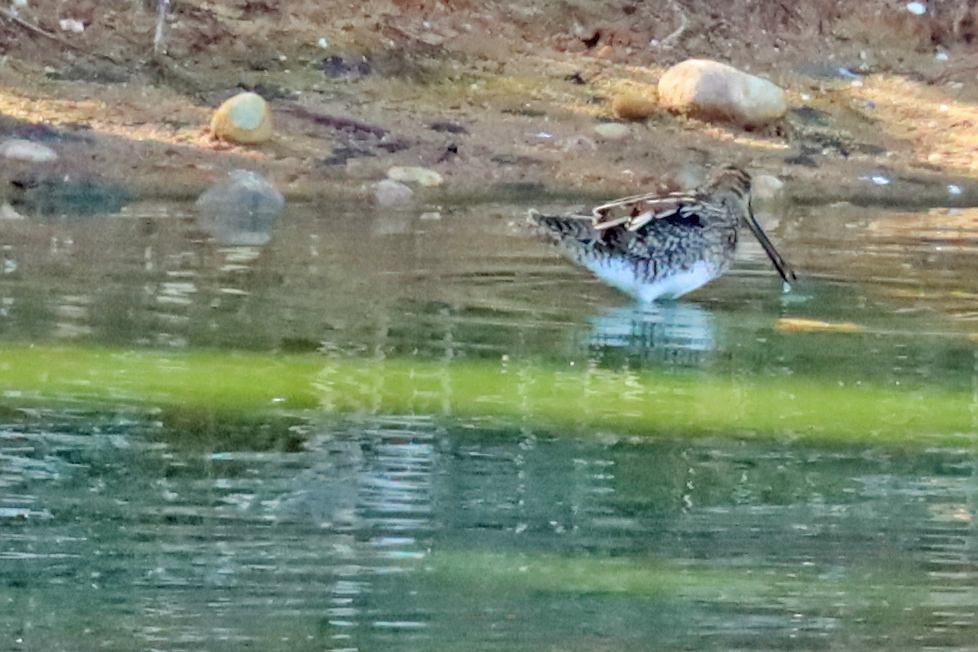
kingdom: Animalia
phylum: Chordata
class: Aves
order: Charadriiformes
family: Scolopacidae
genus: Gallinago
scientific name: Gallinago gallinago
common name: Common snipe
